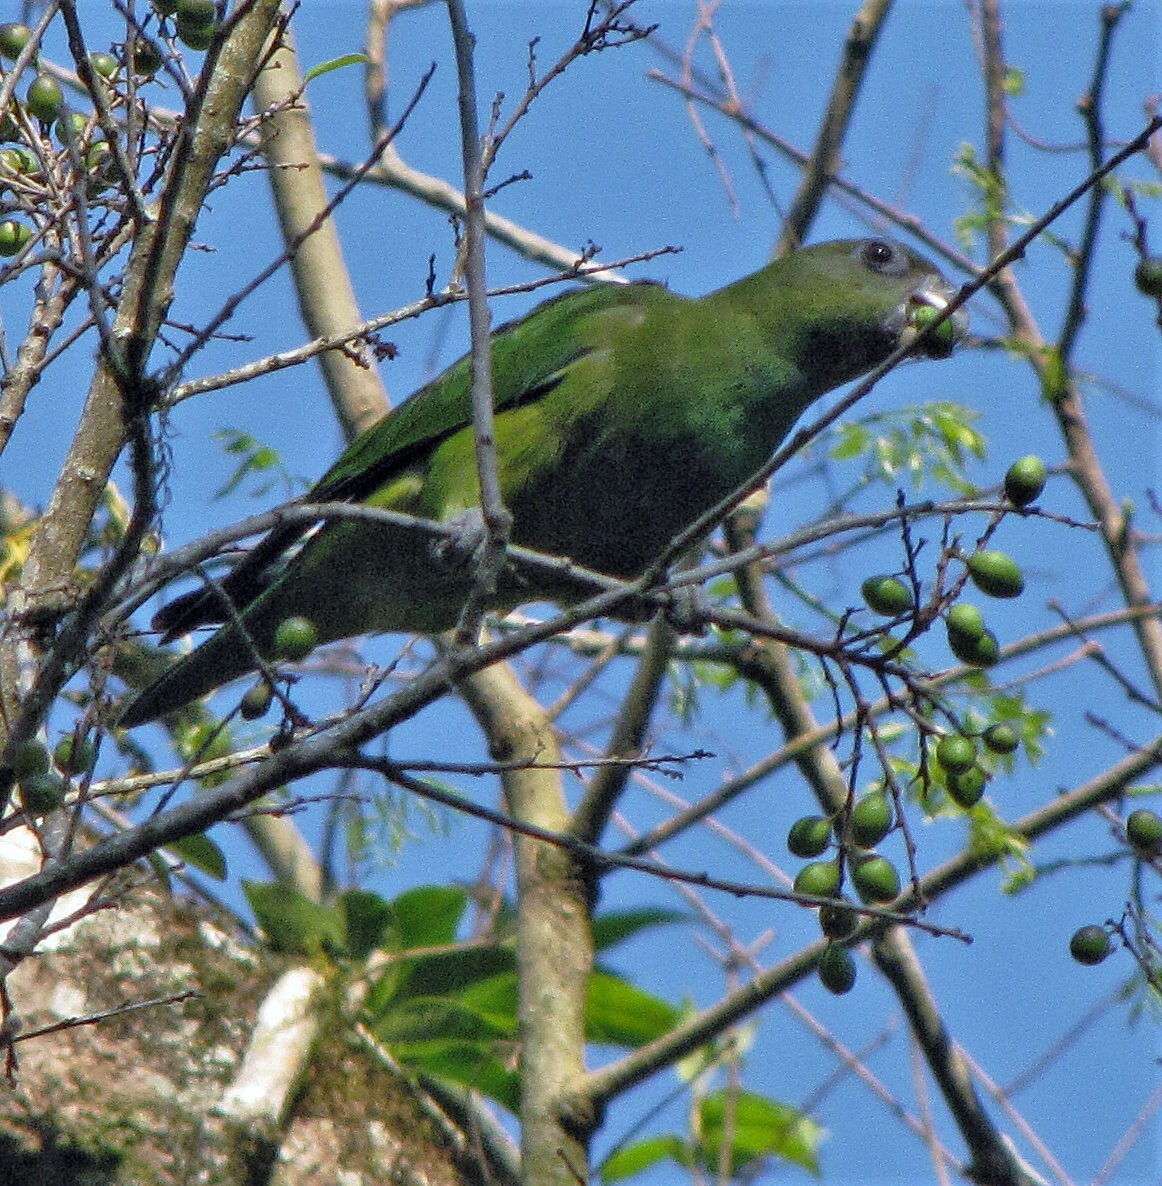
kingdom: Animalia
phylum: Chordata
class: Aves
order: Psittaciformes
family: Psittacidae
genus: Pionopsitta
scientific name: Pionopsitta pileata
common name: Pileated parrot
